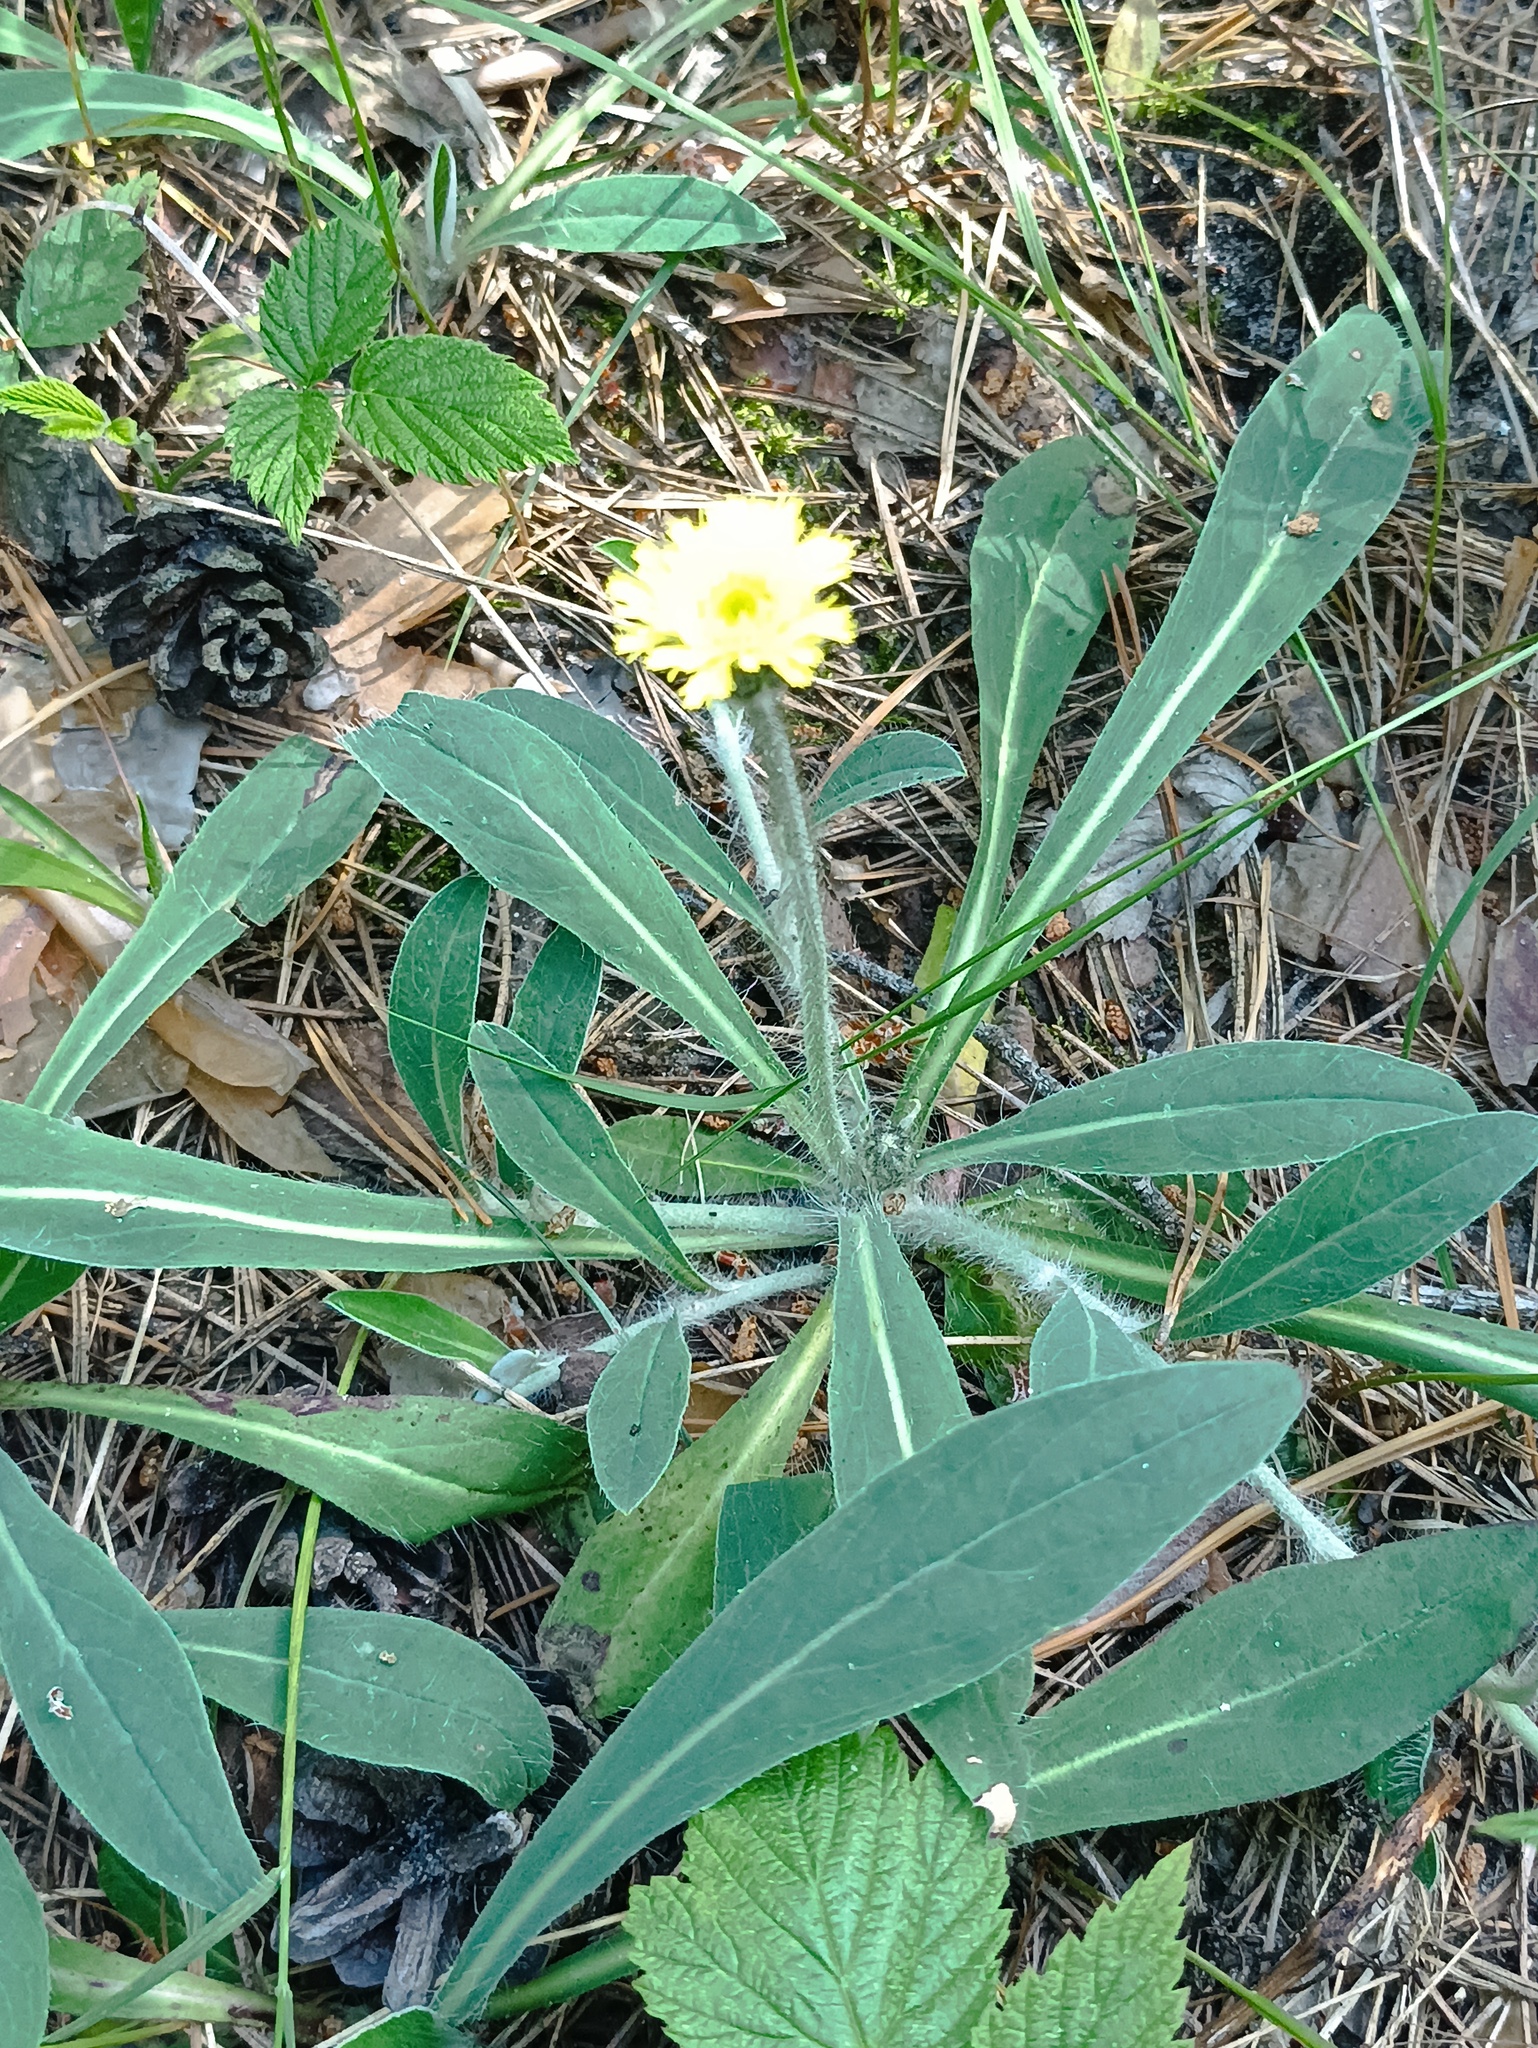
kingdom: Plantae
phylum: Tracheophyta
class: Magnoliopsida
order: Asterales
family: Asteraceae
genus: Pilosella
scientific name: Pilosella officinarum
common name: Mouse-ear hawkweed
